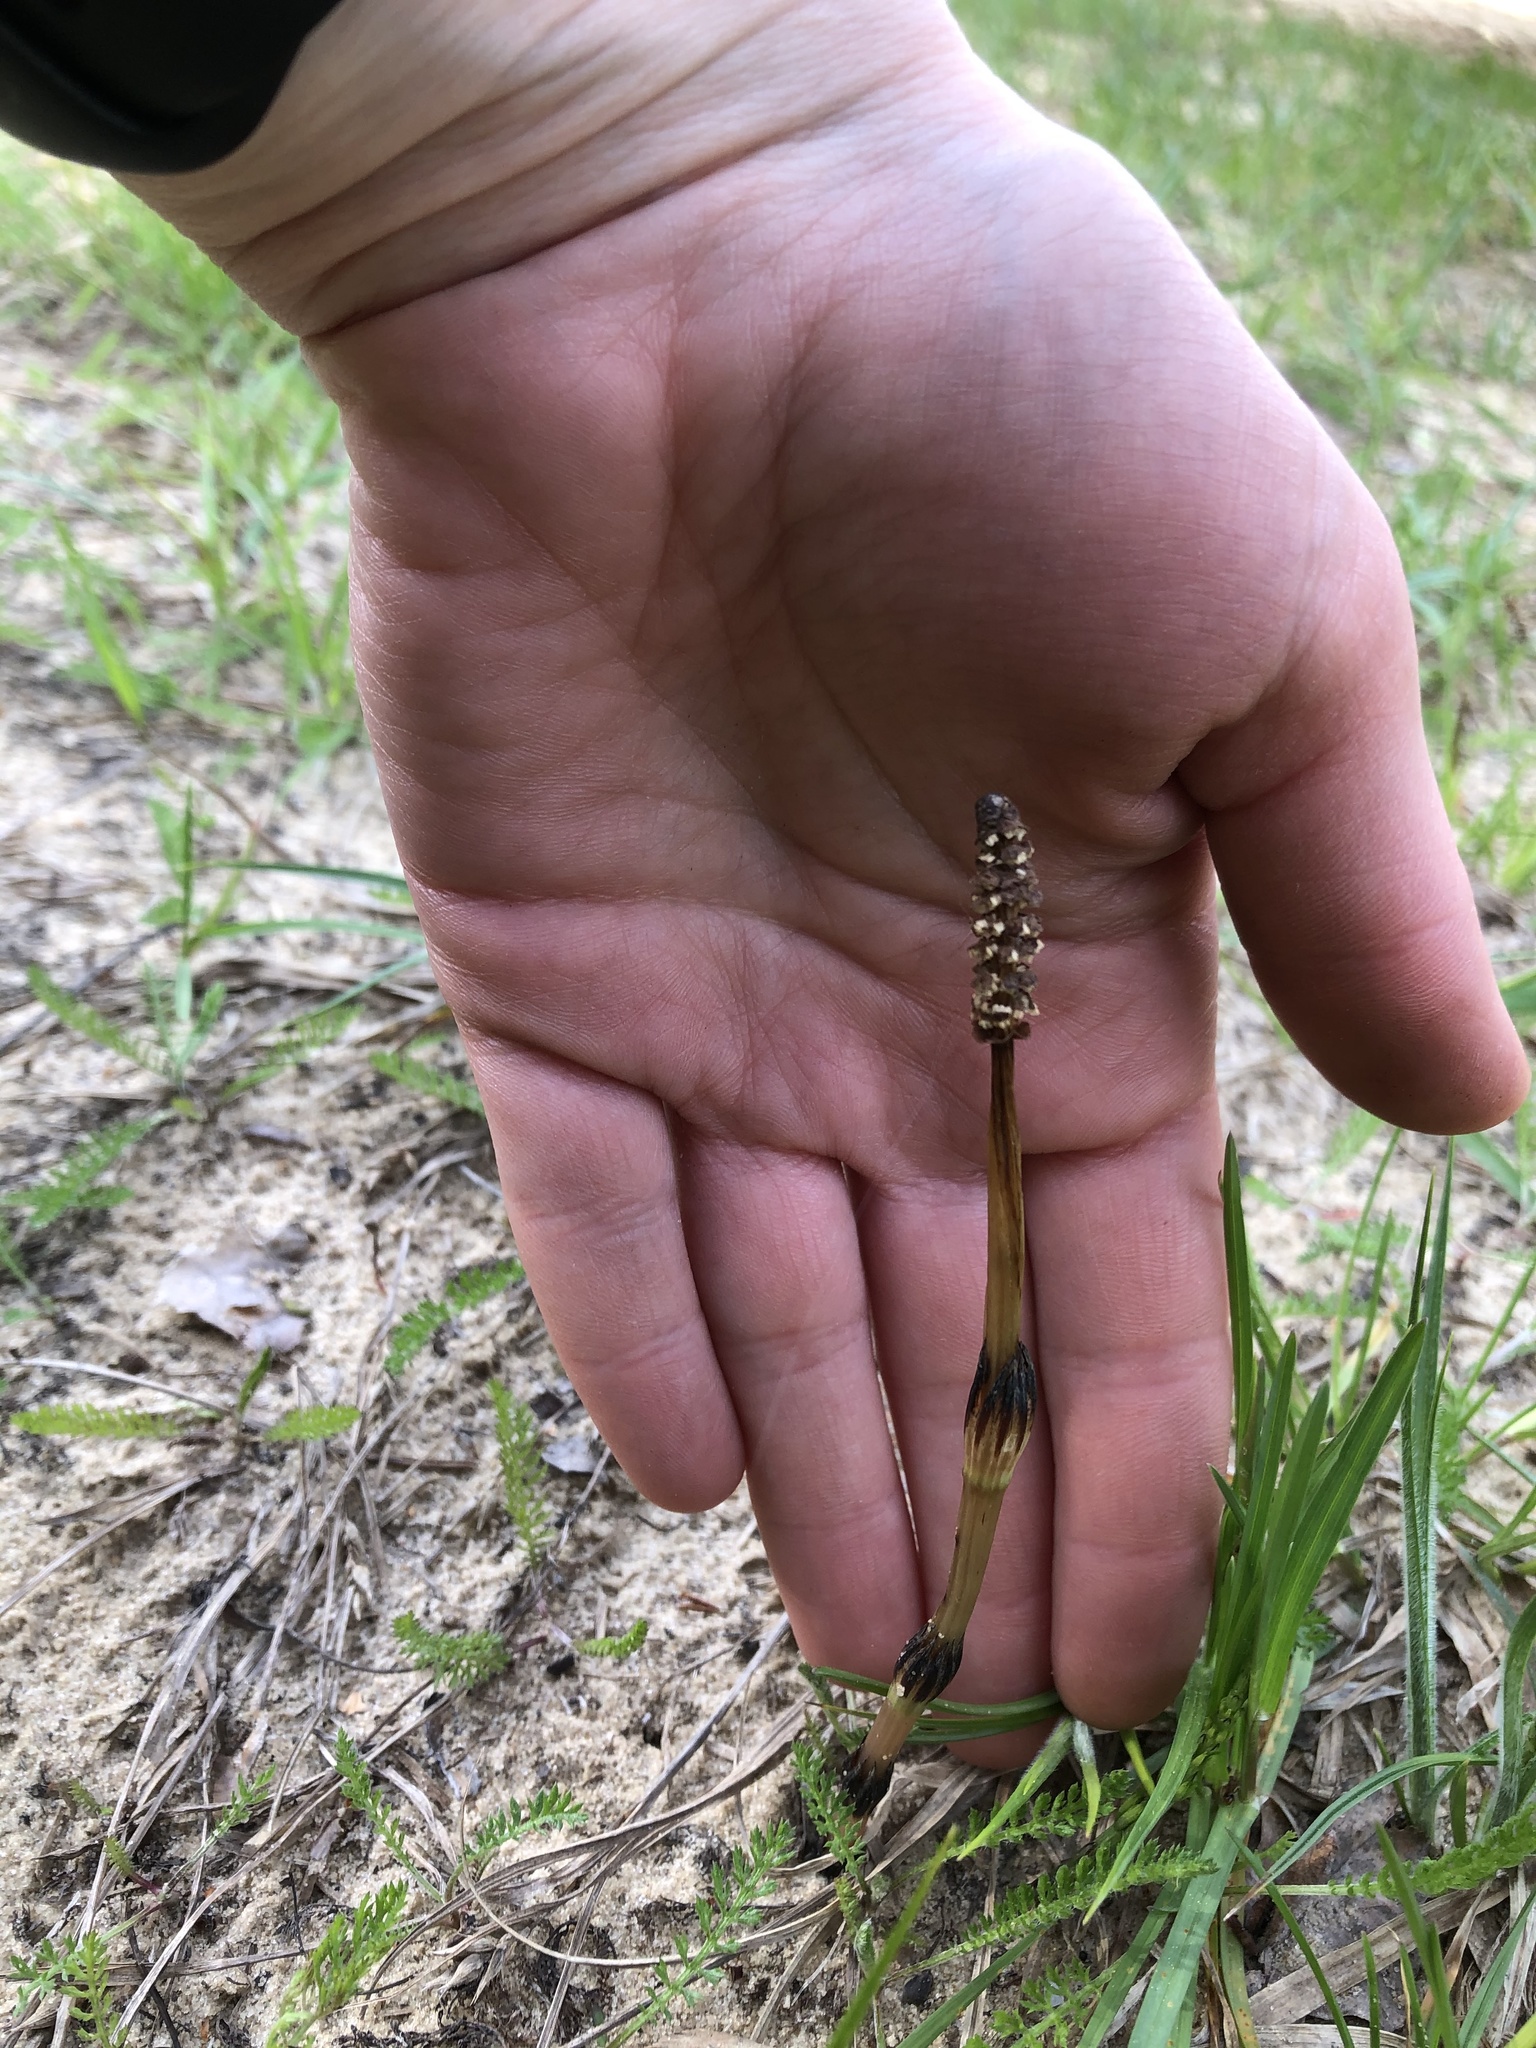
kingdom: Plantae
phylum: Tracheophyta
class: Polypodiopsida
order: Equisetales
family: Equisetaceae
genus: Equisetum
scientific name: Equisetum arvense
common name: Field horsetail
